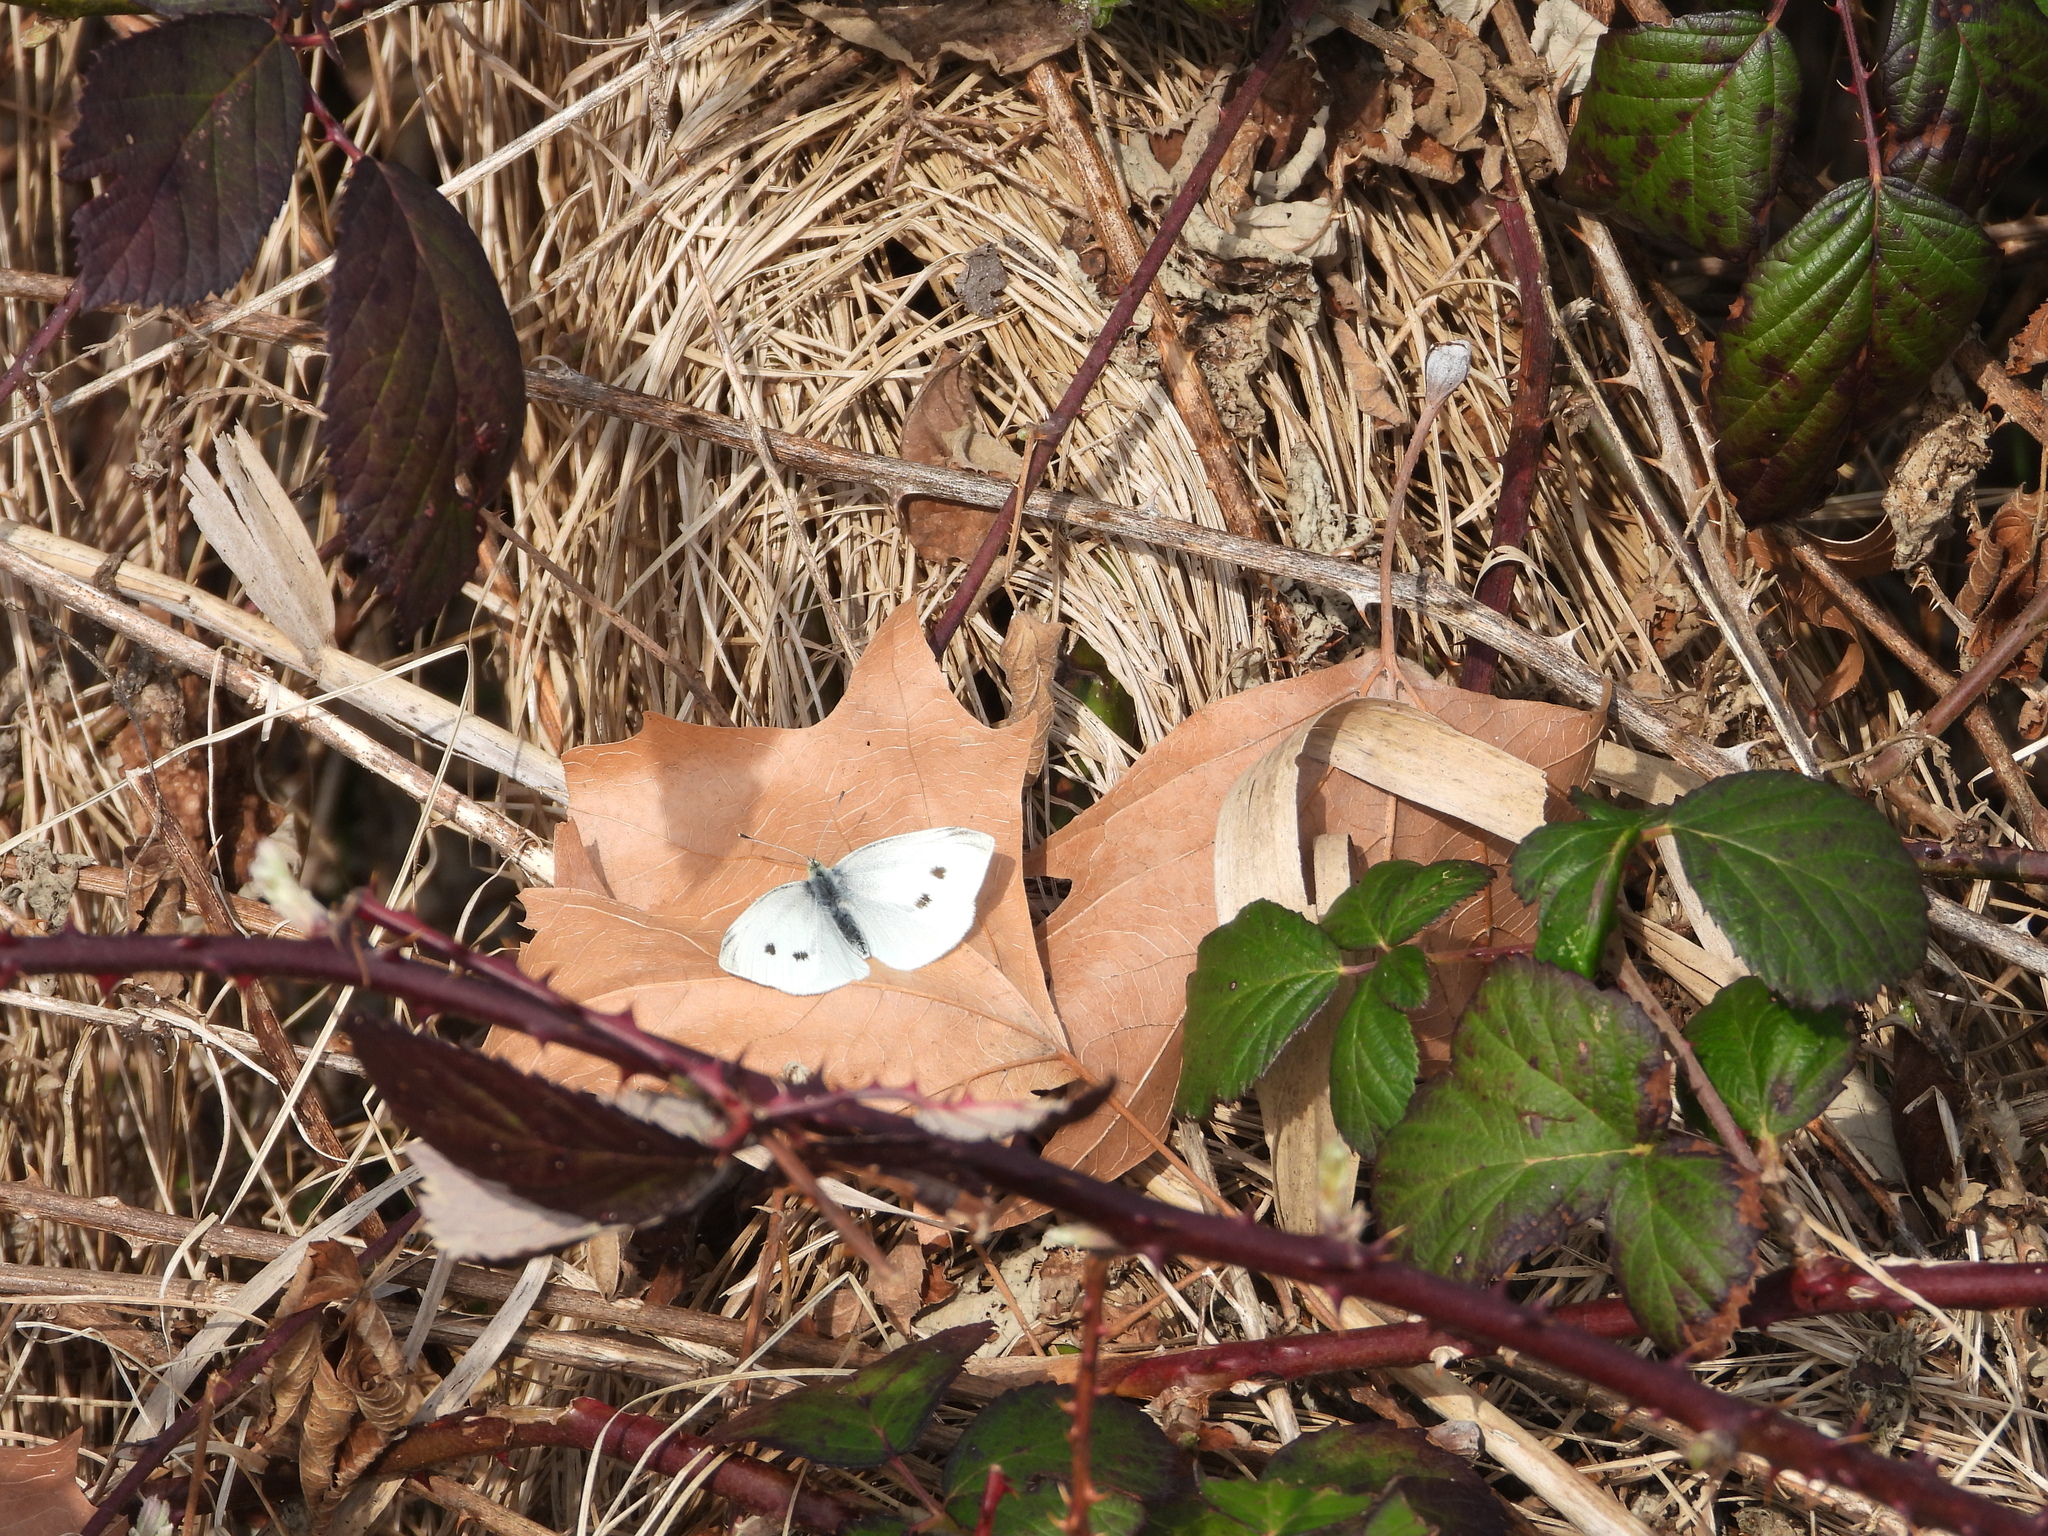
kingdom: Animalia
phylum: Arthropoda
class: Insecta
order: Lepidoptera
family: Pieridae
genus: Pieris
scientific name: Pieris rapae
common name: Small white
